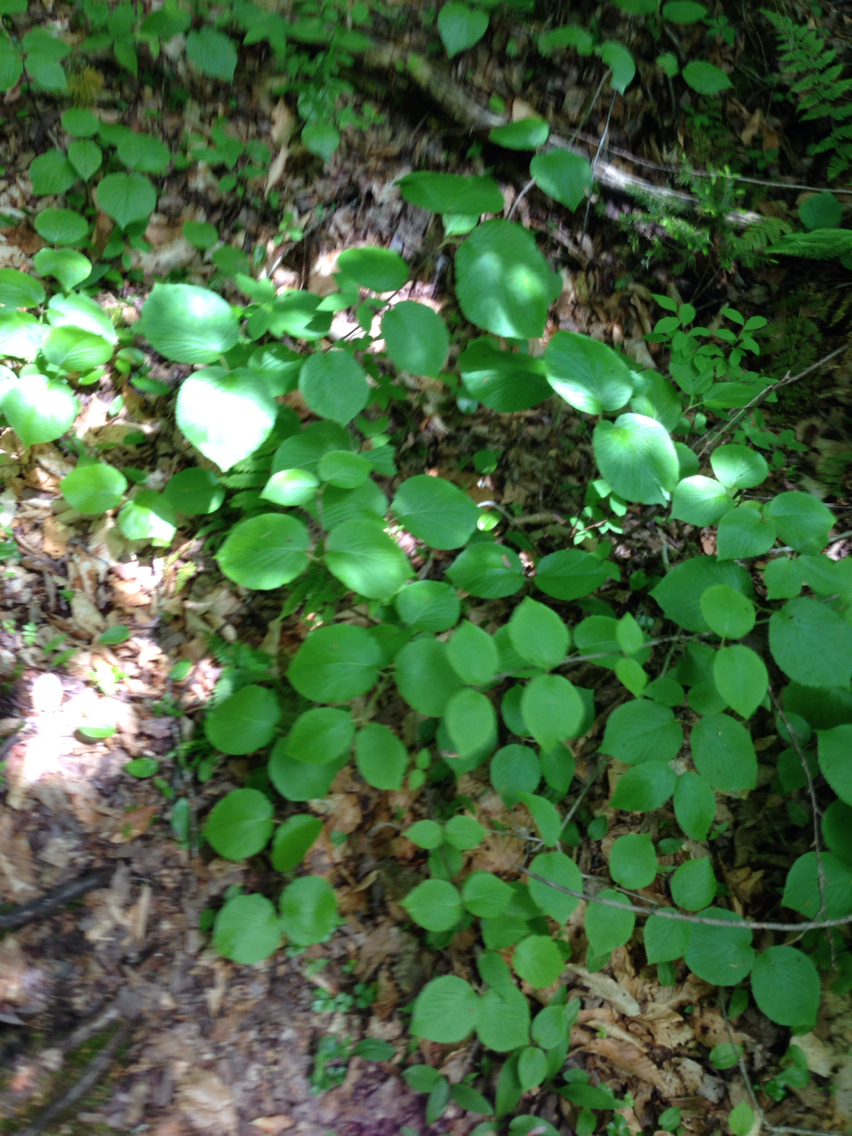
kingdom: Plantae
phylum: Tracheophyta
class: Magnoliopsida
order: Dipsacales
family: Viburnaceae
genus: Viburnum
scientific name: Viburnum lantanoides
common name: Hobblebush
